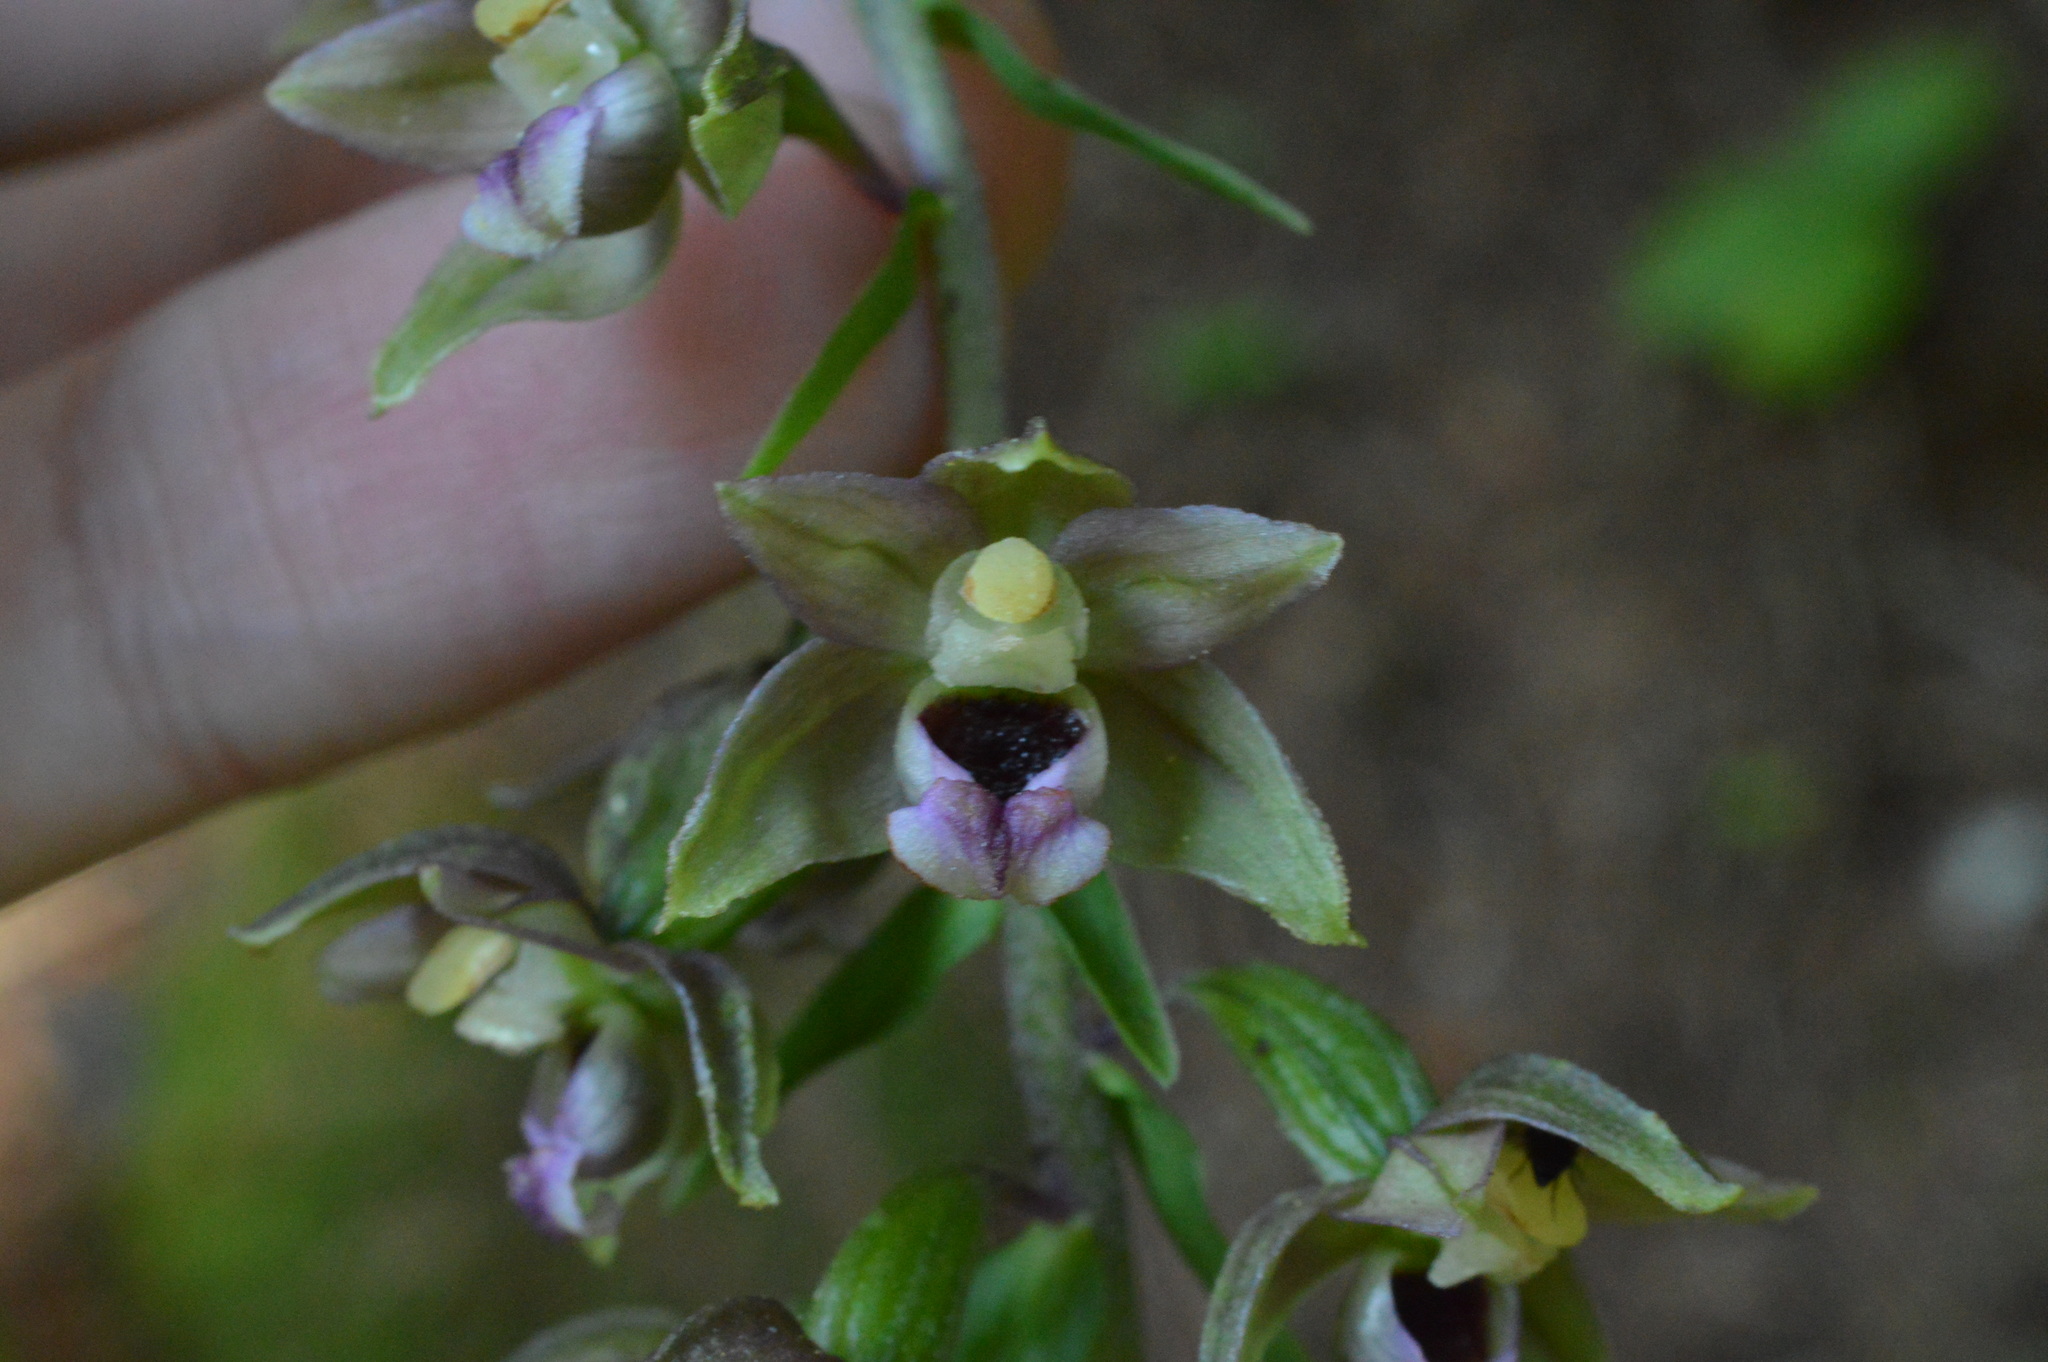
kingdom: Plantae
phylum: Tracheophyta
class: Liliopsida
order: Asparagales
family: Orchidaceae
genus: Epipactis
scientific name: Epipactis helleborine
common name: Broad-leaved helleborine
